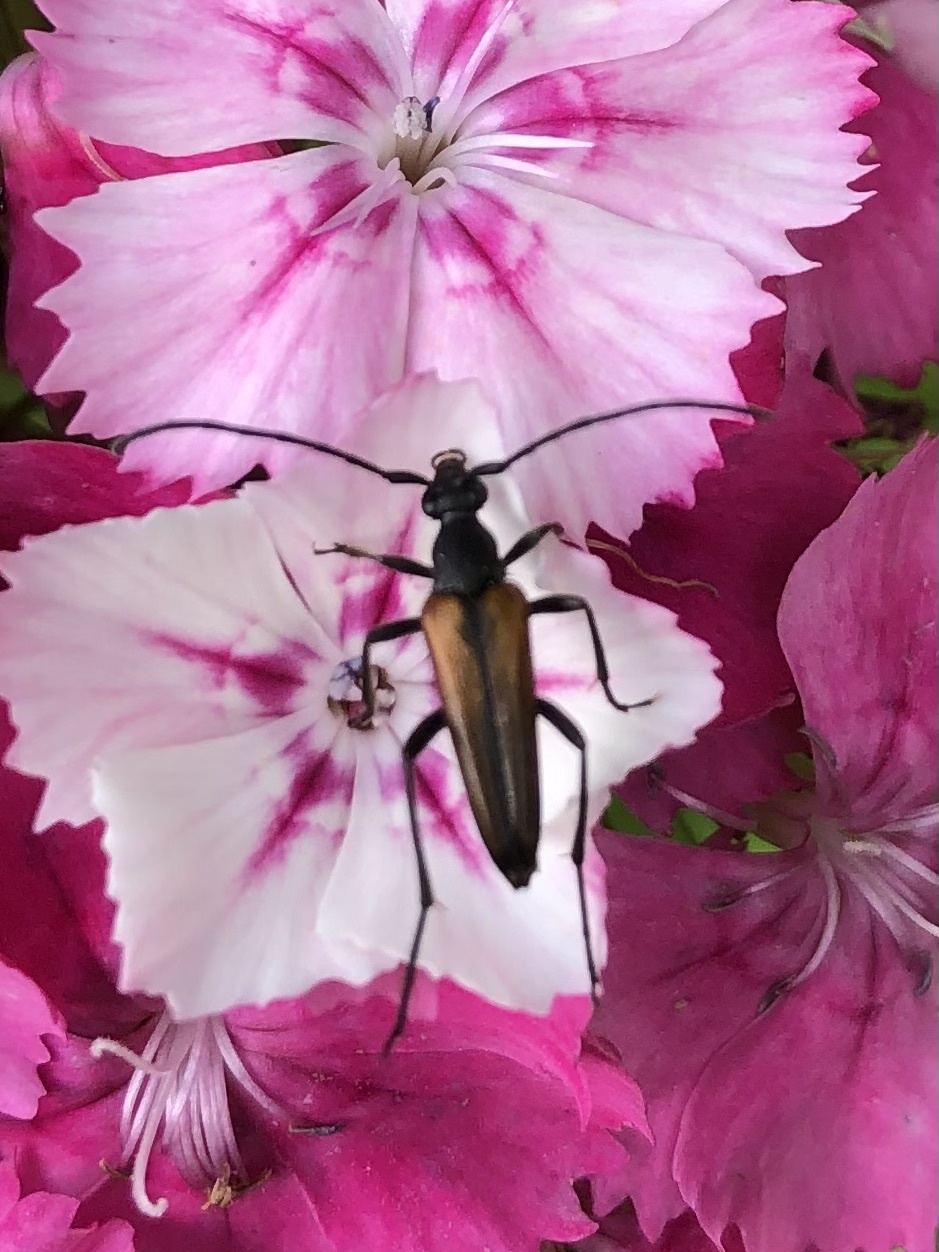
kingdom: Animalia
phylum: Arthropoda
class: Insecta
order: Coleoptera
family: Cerambycidae
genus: Stenurella
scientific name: Stenurella melanura
